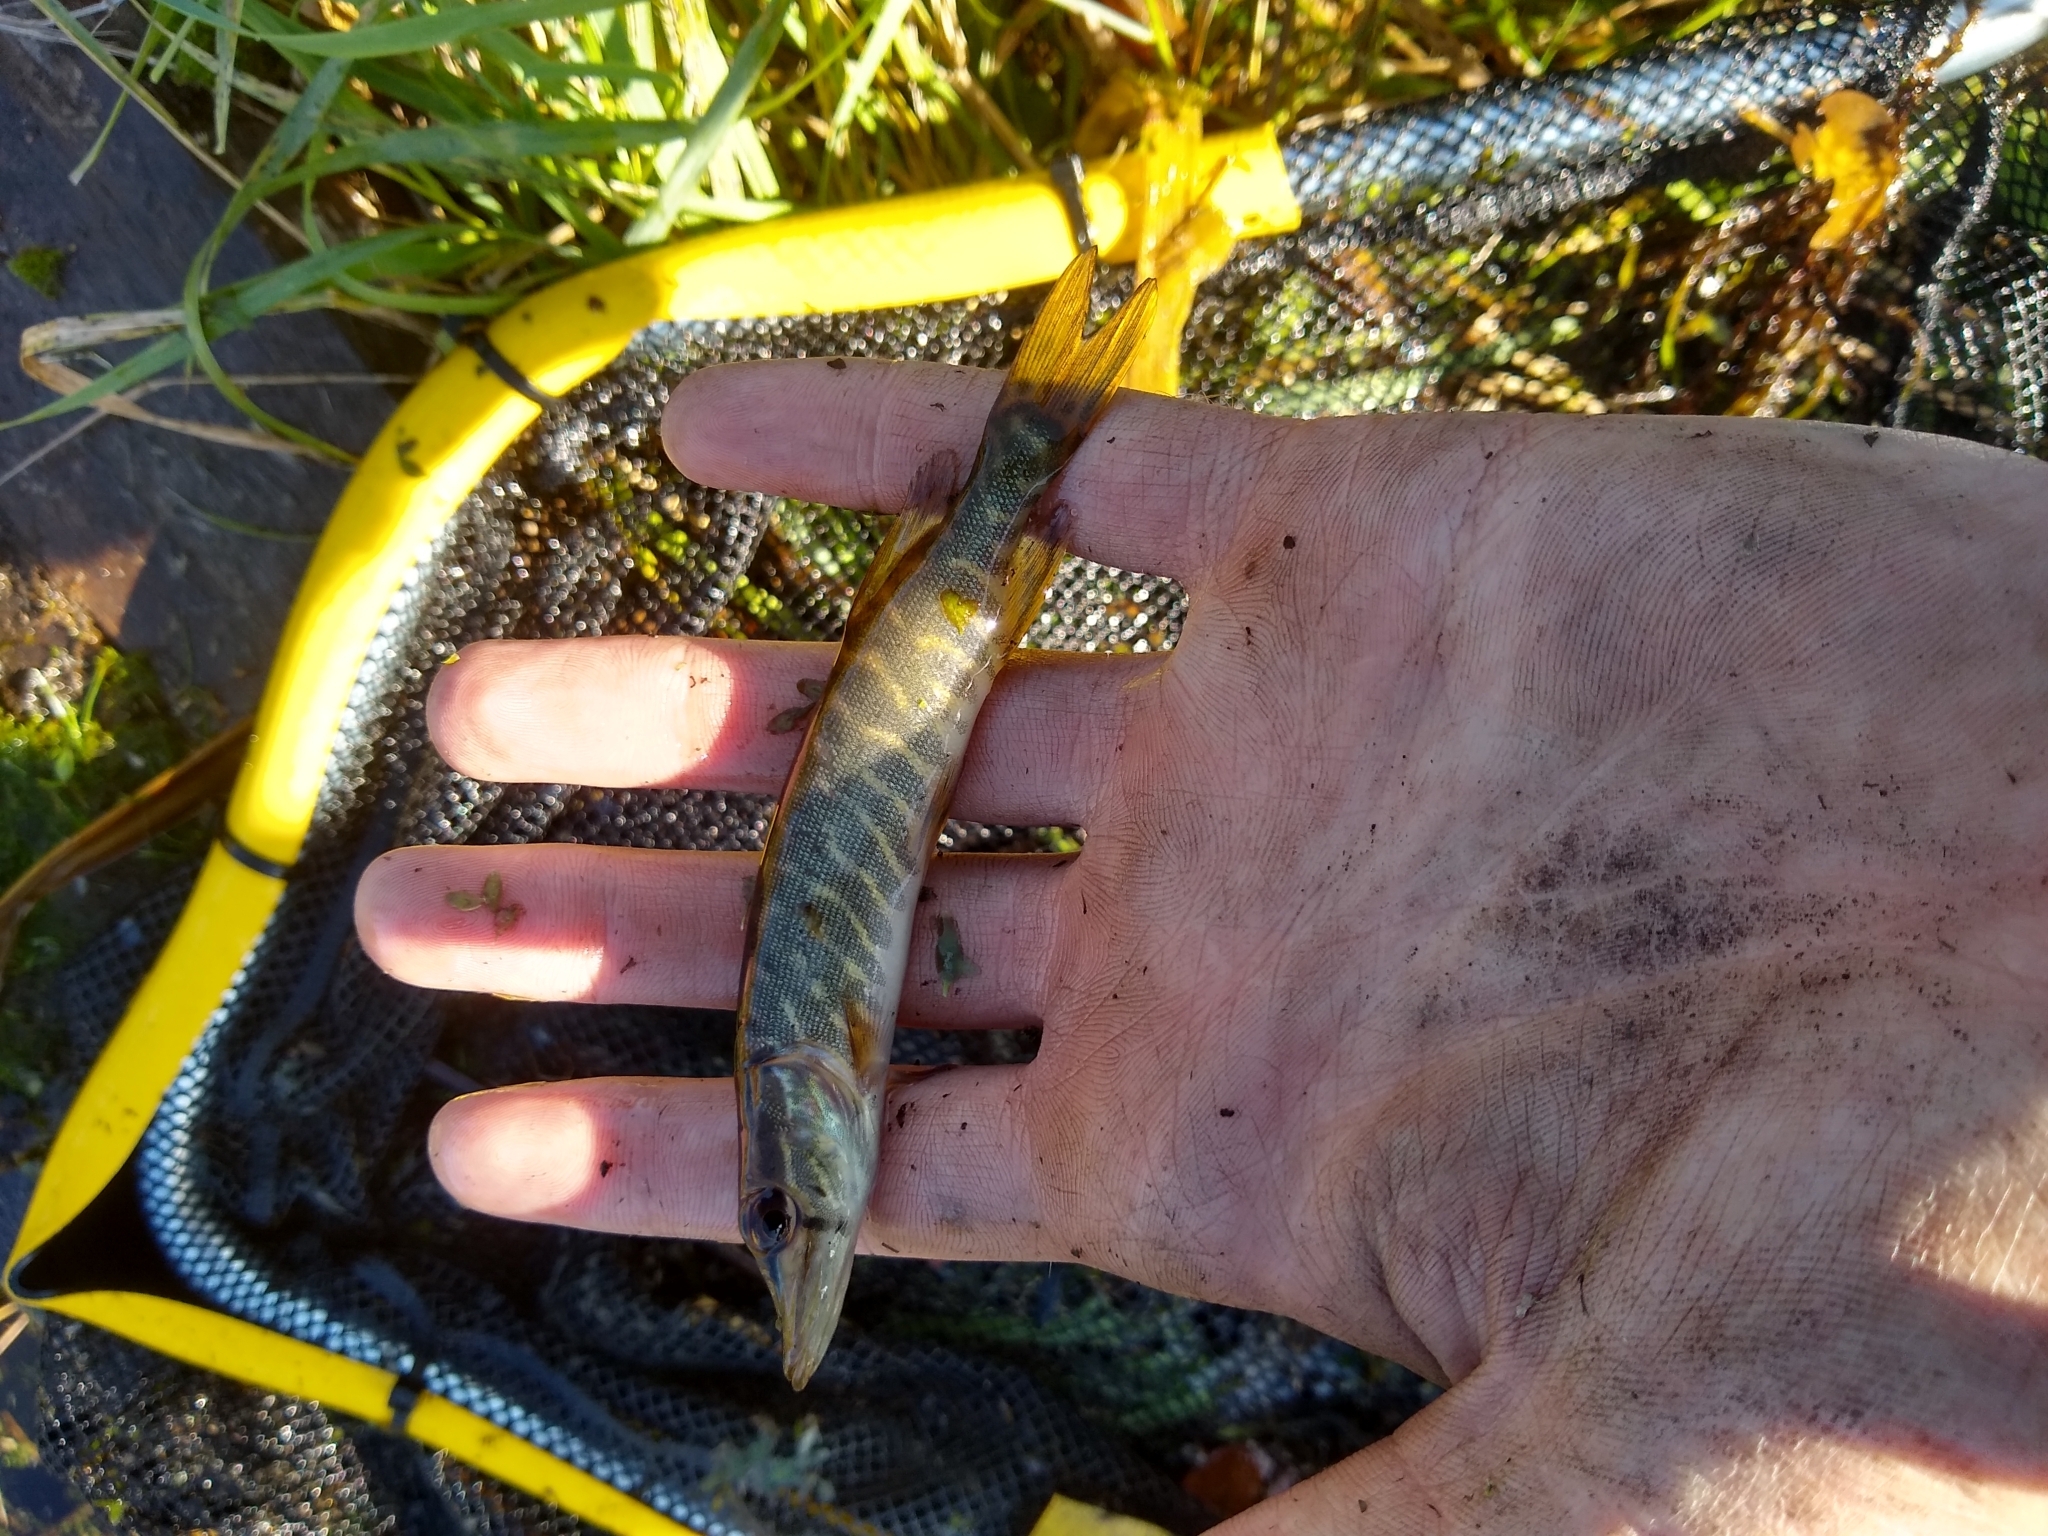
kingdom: Animalia
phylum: Chordata
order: Esociformes
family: Esocidae
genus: Esox
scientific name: Esox lucius
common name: Northern pike
